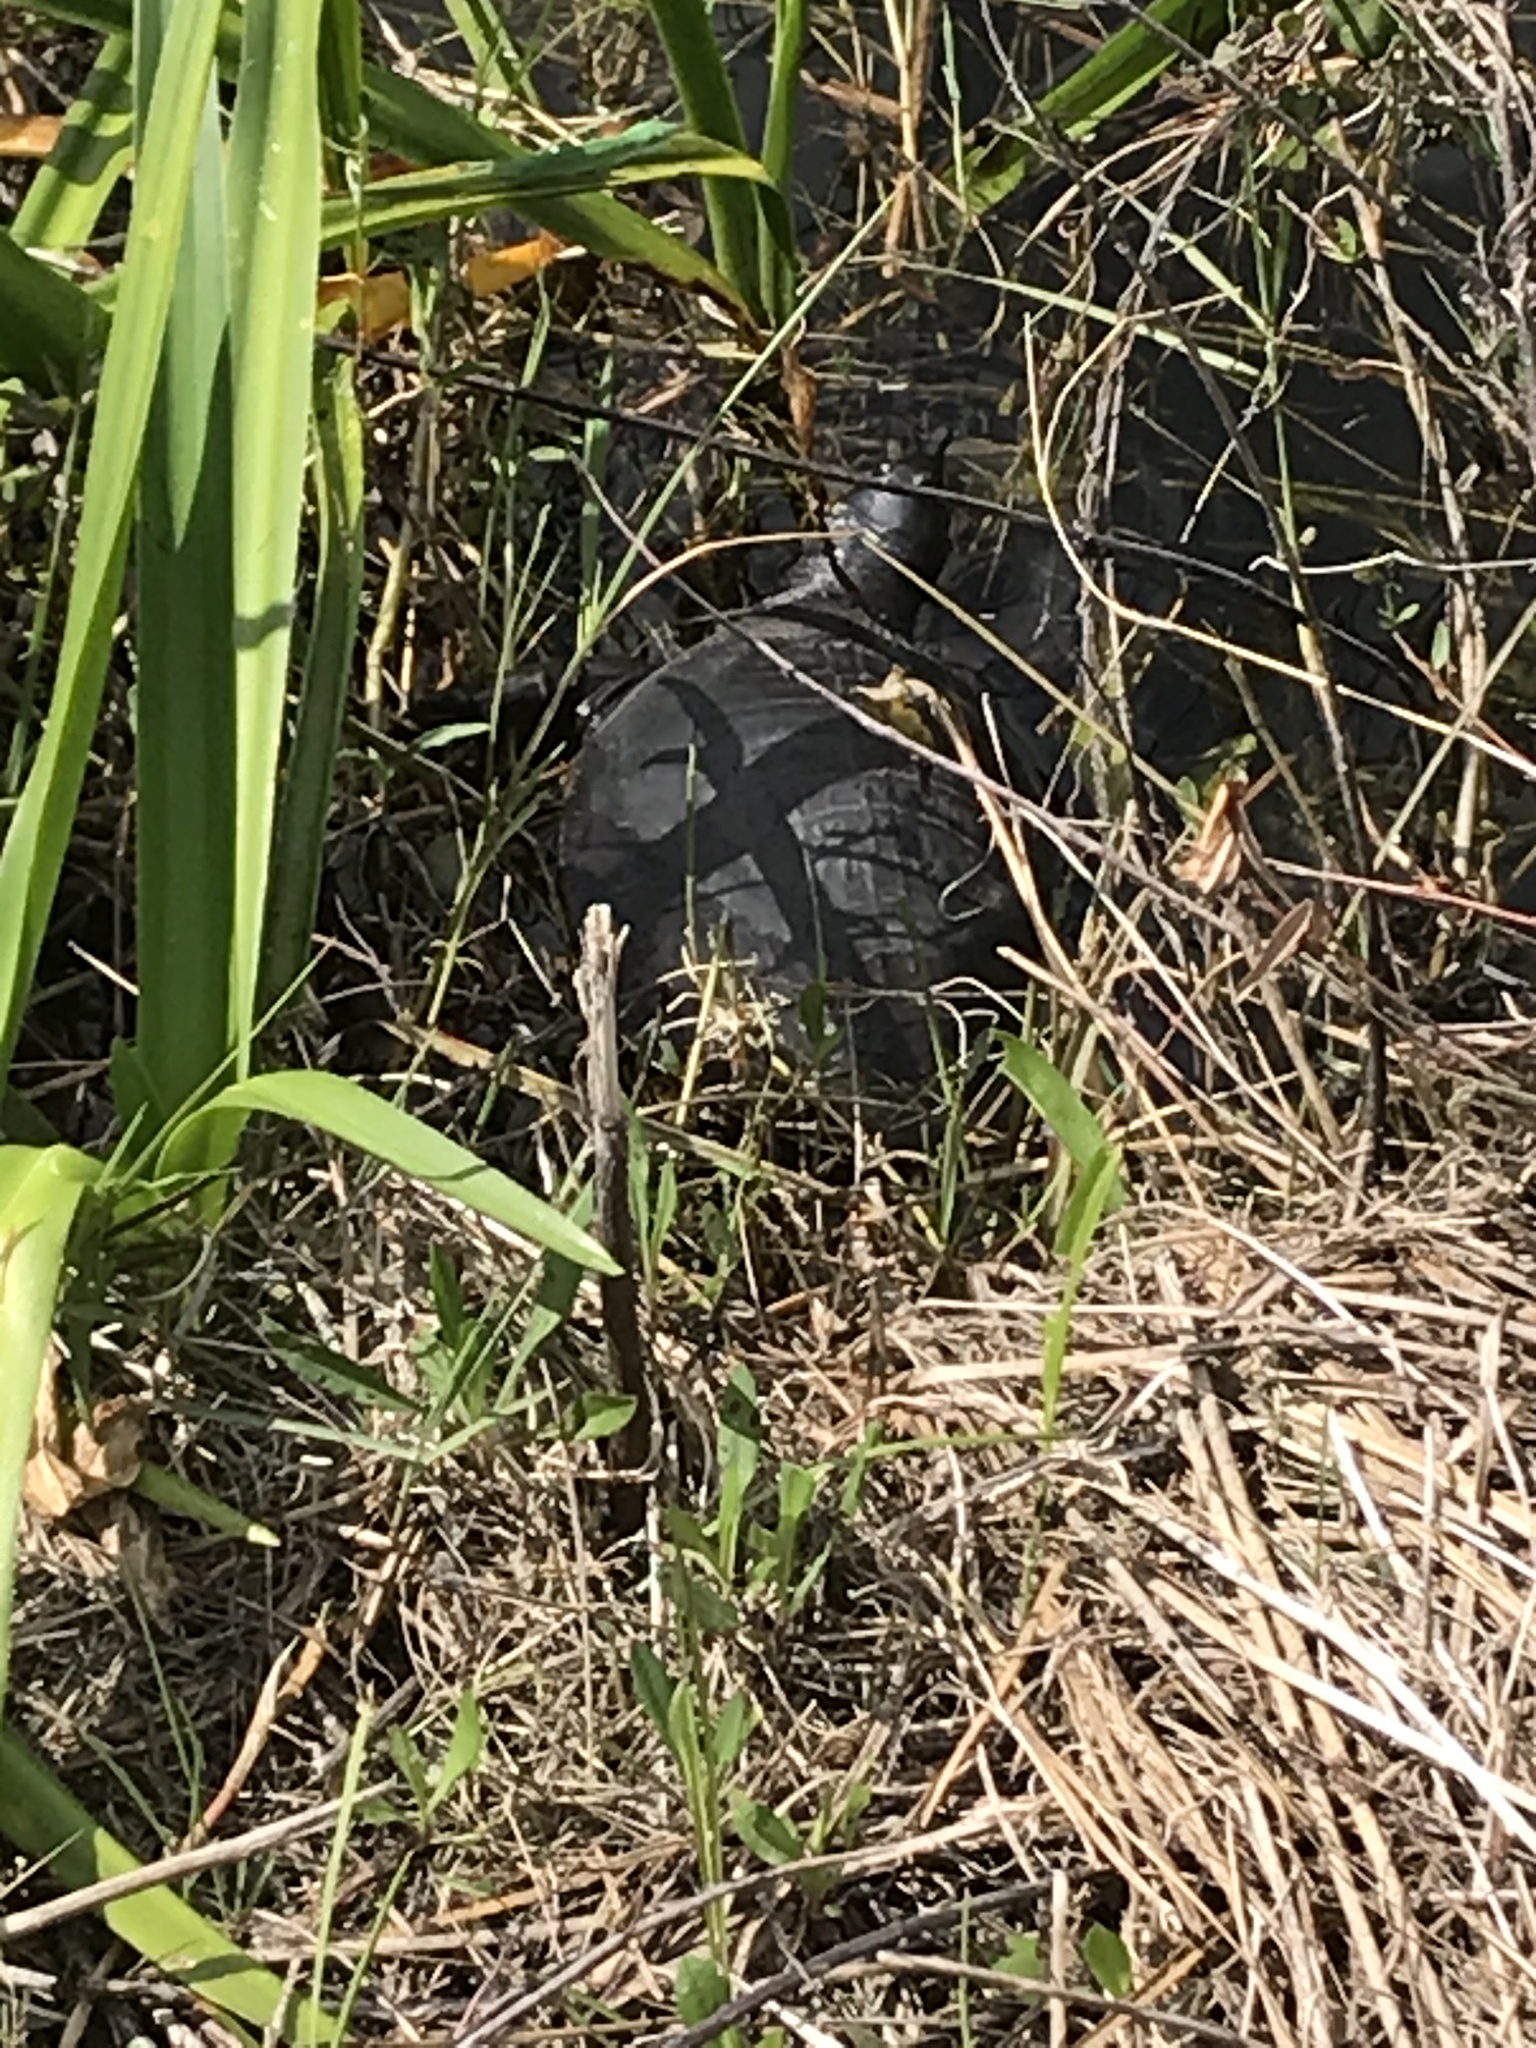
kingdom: Animalia
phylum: Chordata
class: Testudines
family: Trionychidae
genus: Apalone
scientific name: Apalone ferox
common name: Florida softshell turtle
